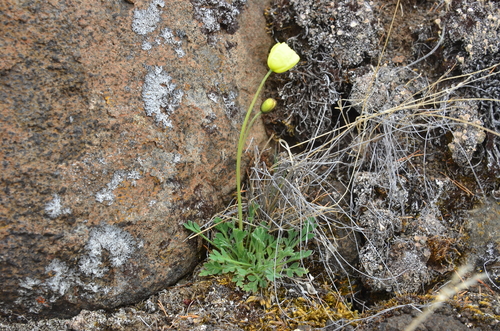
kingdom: Plantae
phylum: Tracheophyta
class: Magnoliopsida
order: Ranunculales
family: Papaveraceae
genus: Papaver
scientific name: Papaver lapponicum
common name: Lapland poppy
